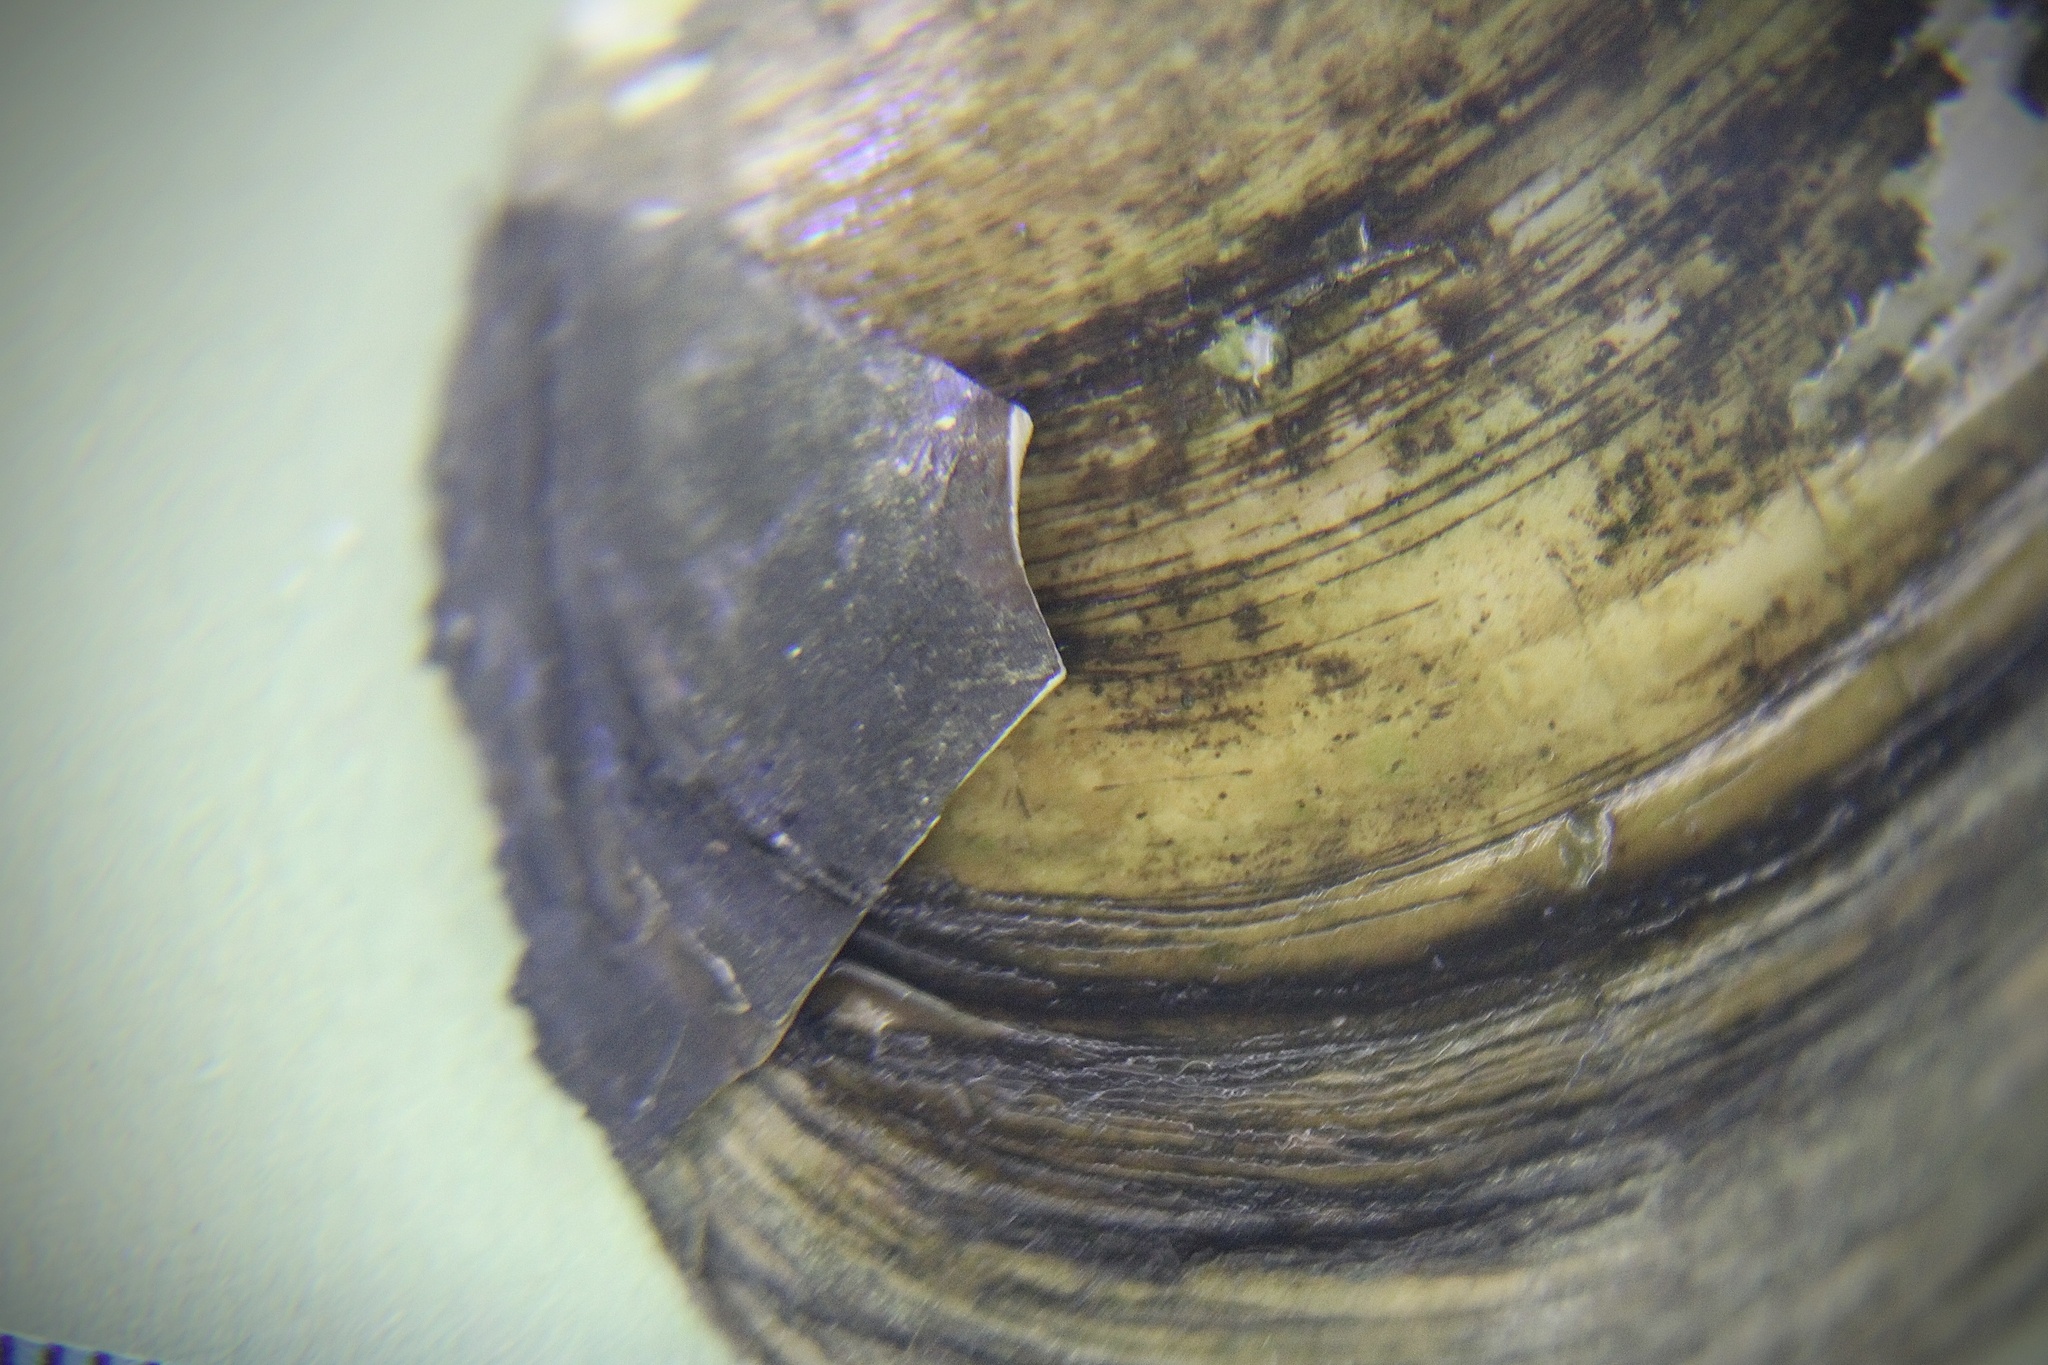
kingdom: Animalia
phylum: Mollusca
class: Bivalvia
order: Unionida
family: Unionidae
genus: Utterbackia
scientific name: Utterbackia imbecillis
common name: Paper pondshell
